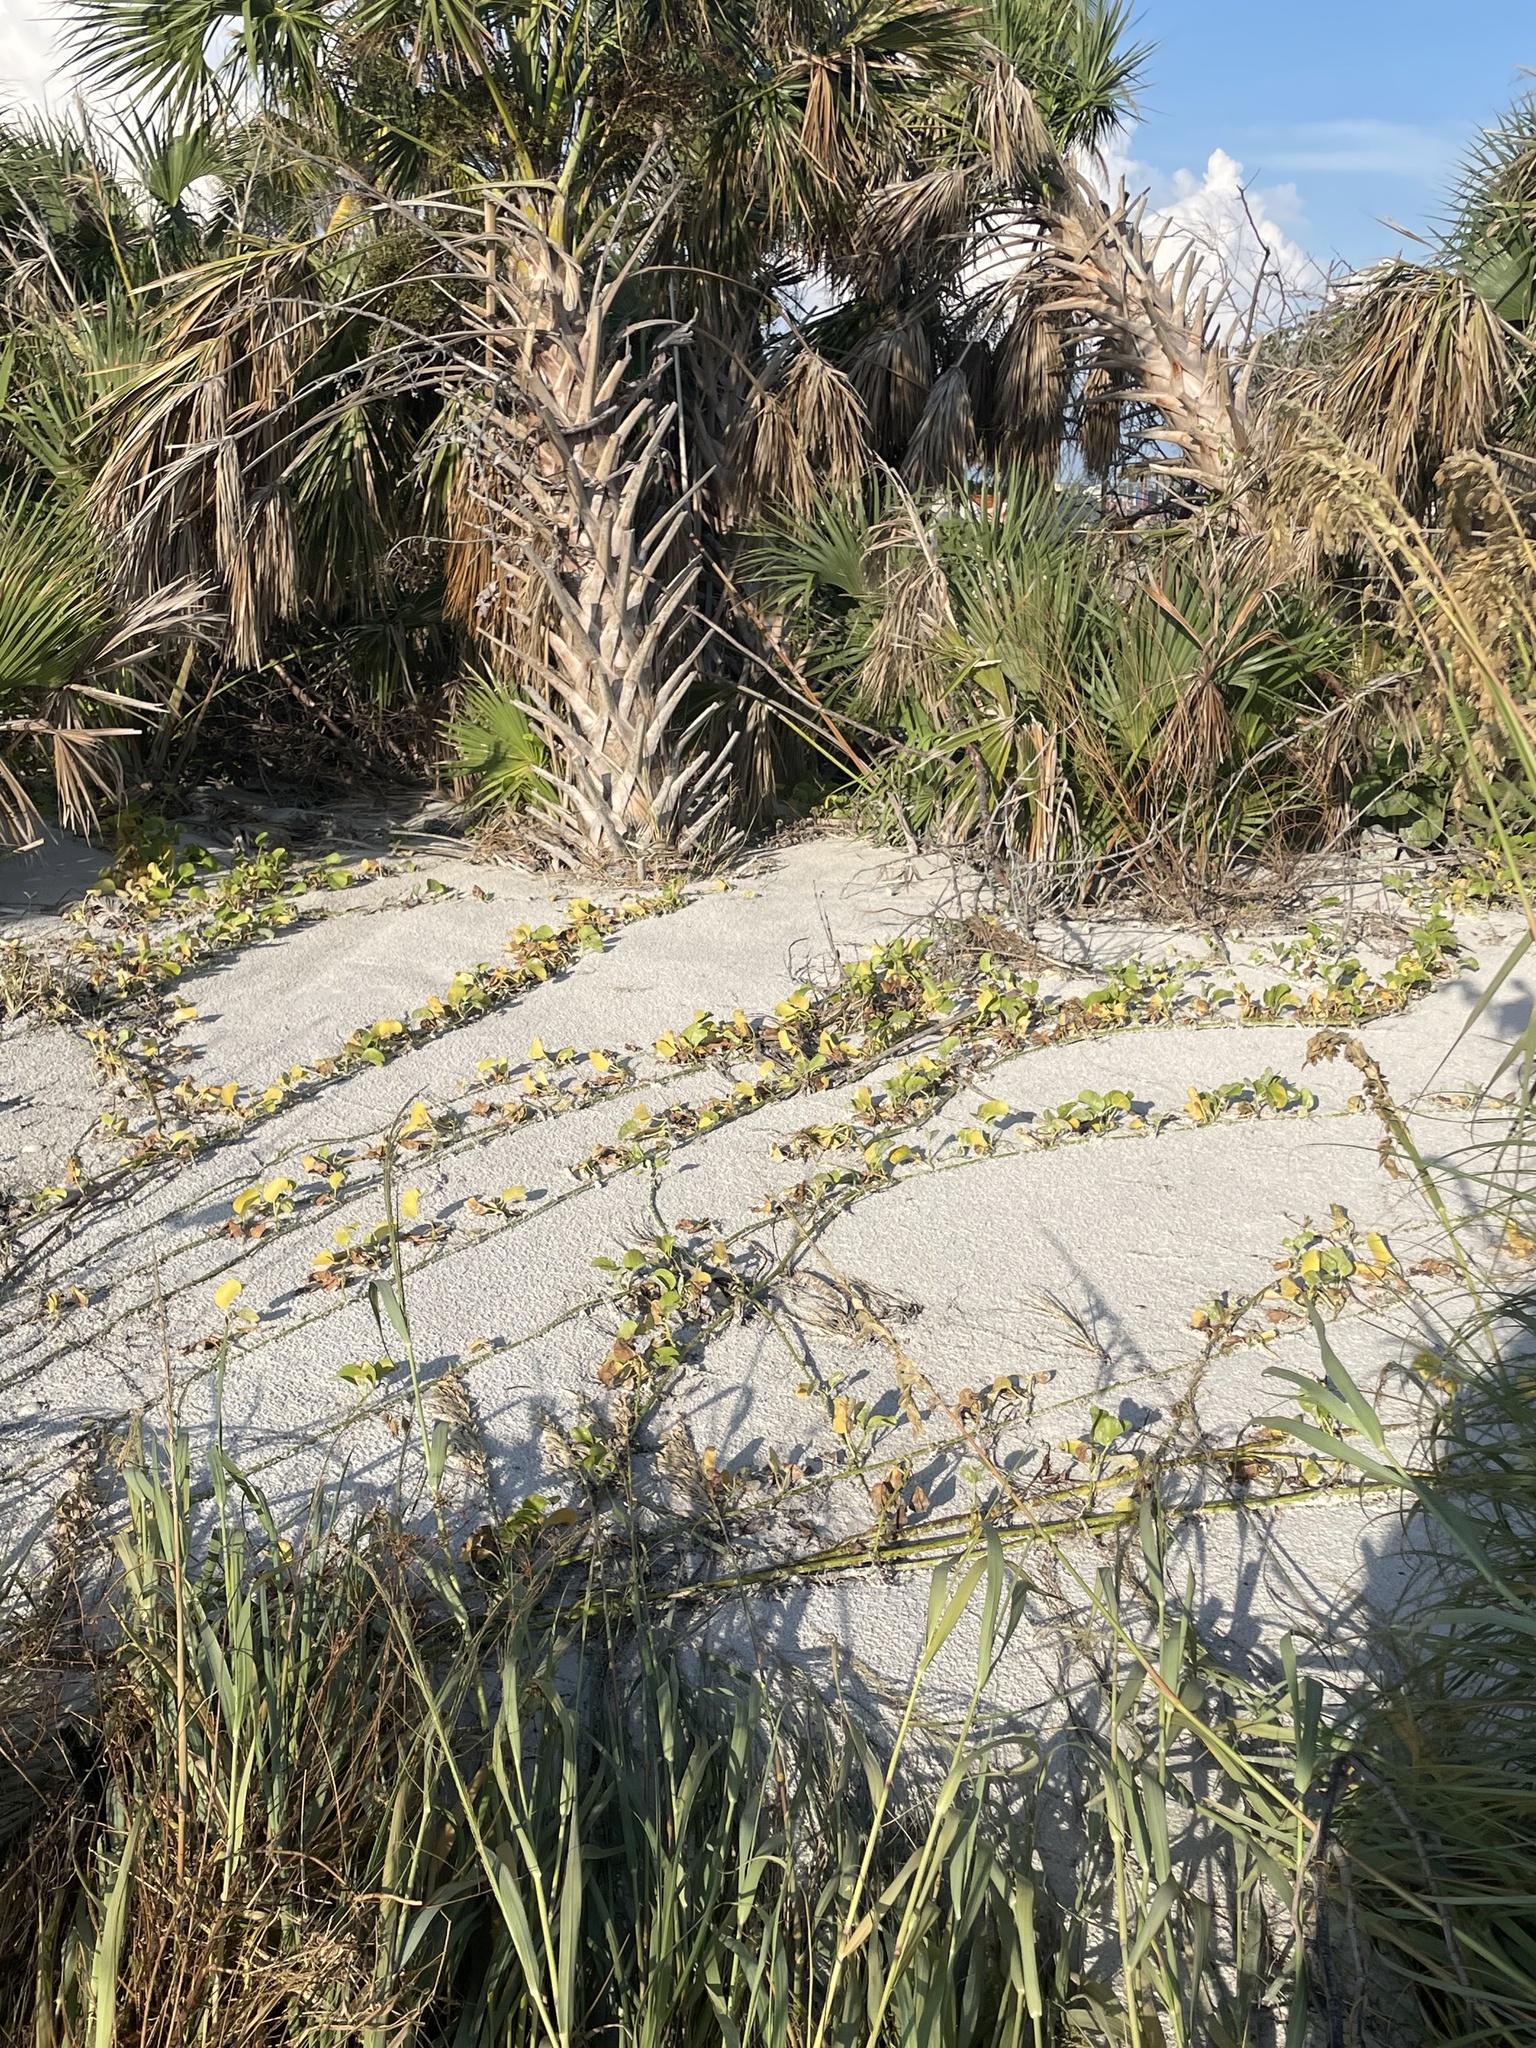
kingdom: Plantae
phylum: Tracheophyta
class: Magnoliopsida
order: Solanales
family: Convolvulaceae
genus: Ipomoea
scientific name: Ipomoea pes-caprae
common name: Beach morning glory
